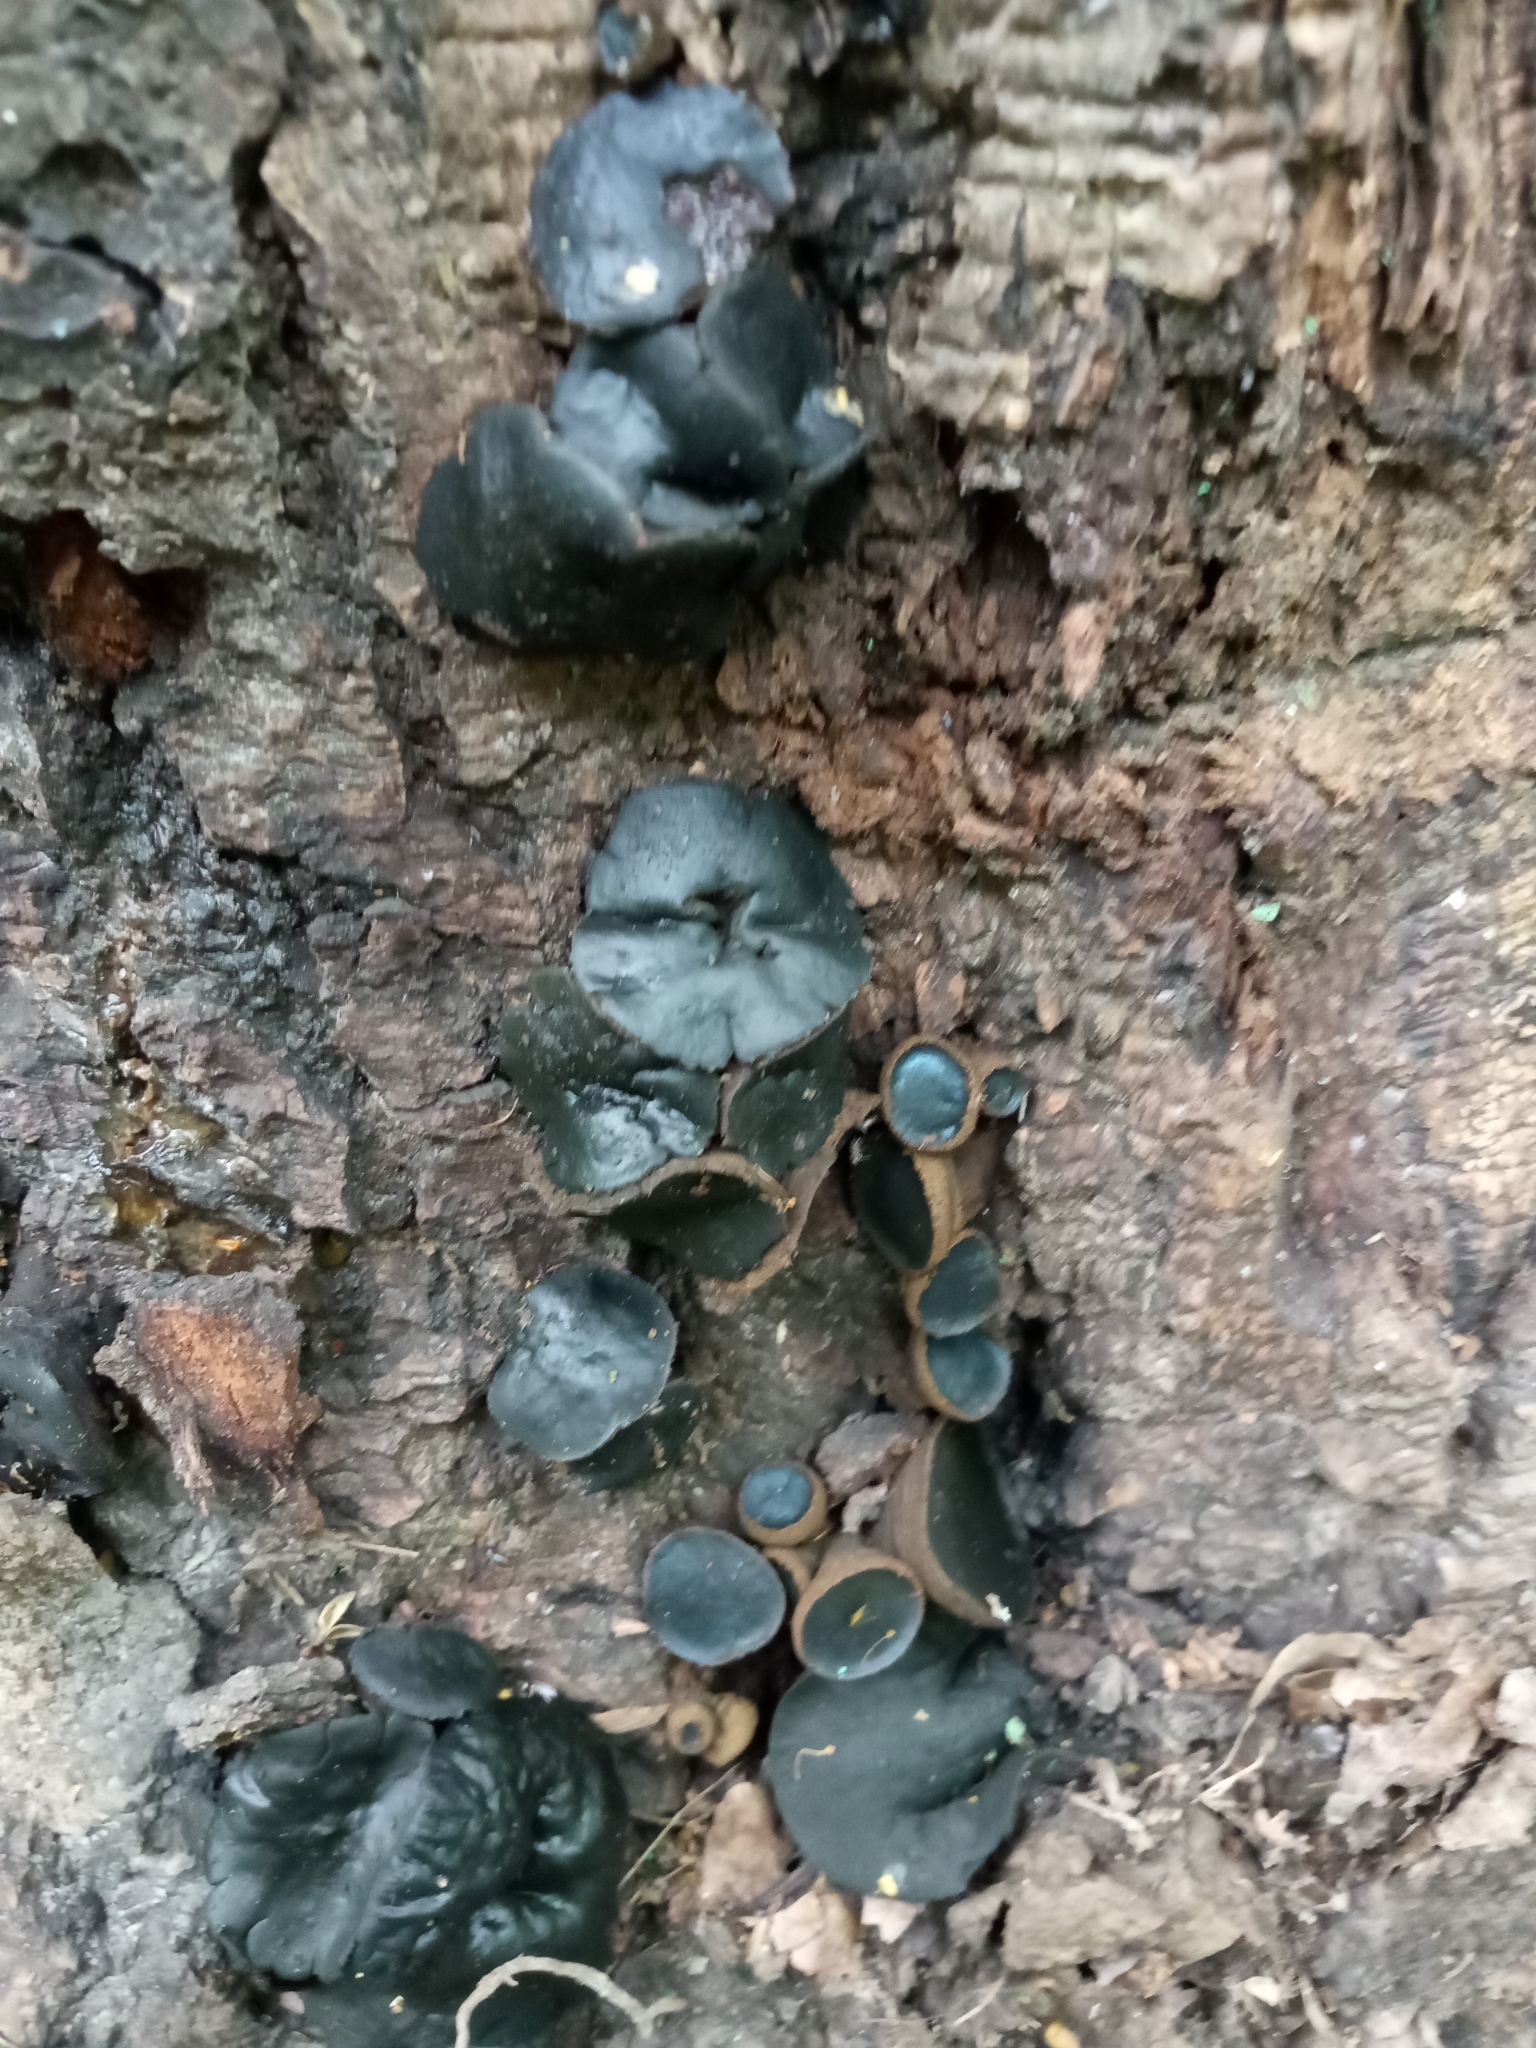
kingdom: Fungi
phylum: Ascomycota
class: Leotiomycetes
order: Phacidiales
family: Phacidiaceae
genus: Bulgaria
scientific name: Bulgaria inquinans
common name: Black bulgar
